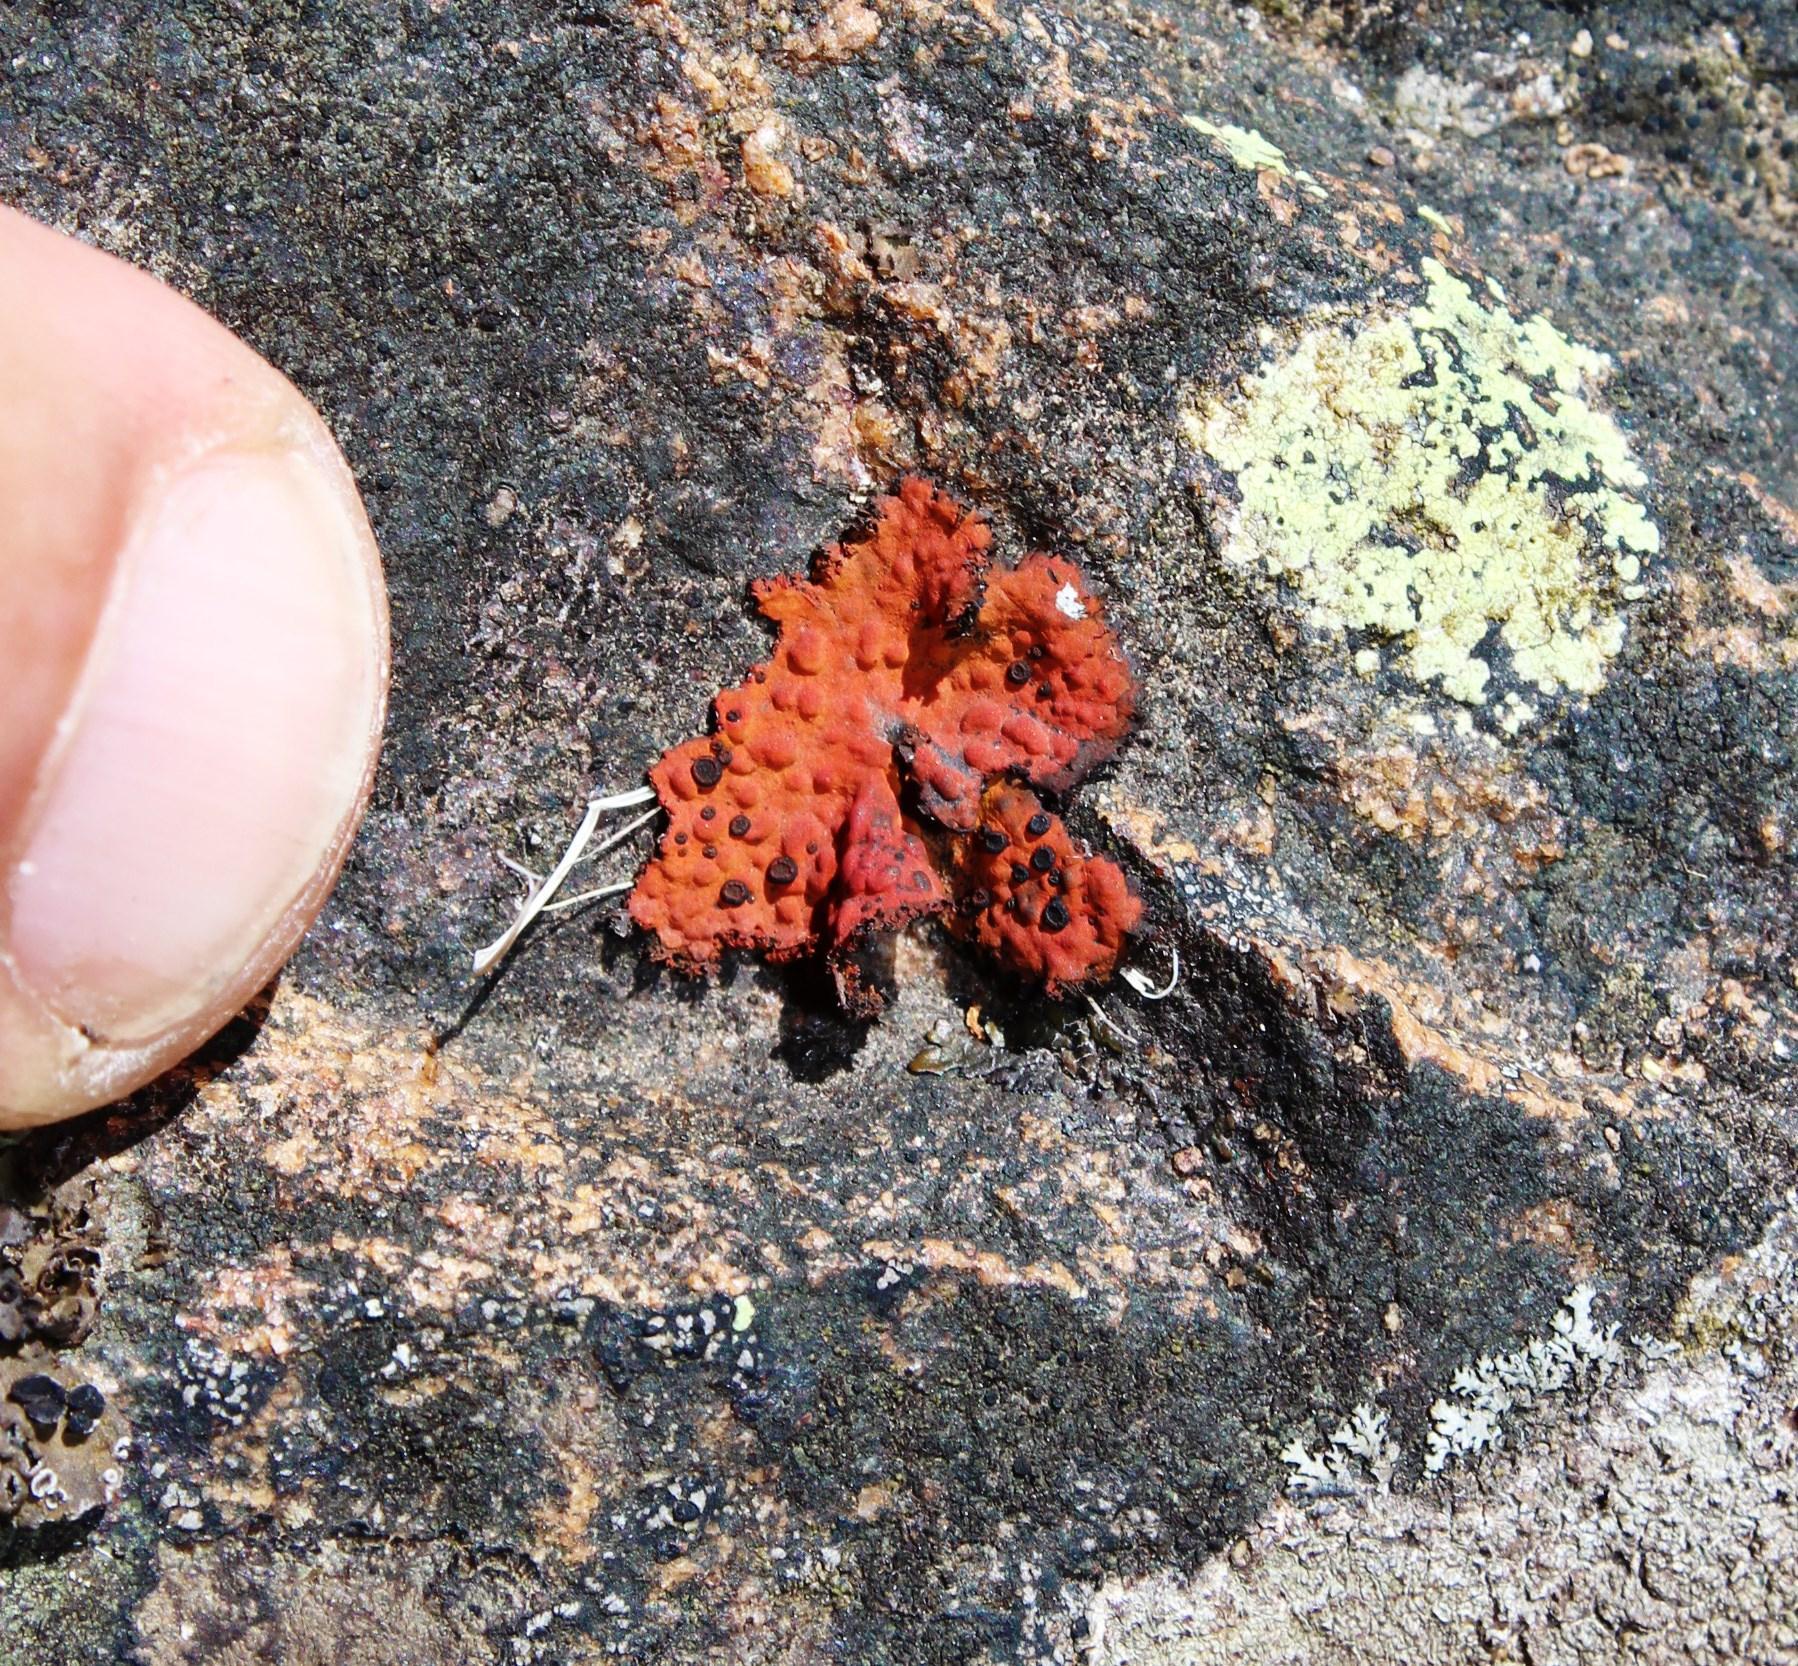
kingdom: Fungi
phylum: Ascomycota
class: Lecanoromycetes
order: Umbilicariales
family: Umbilicariaceae
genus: Lasallia
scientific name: Lasallia rubiginosa
